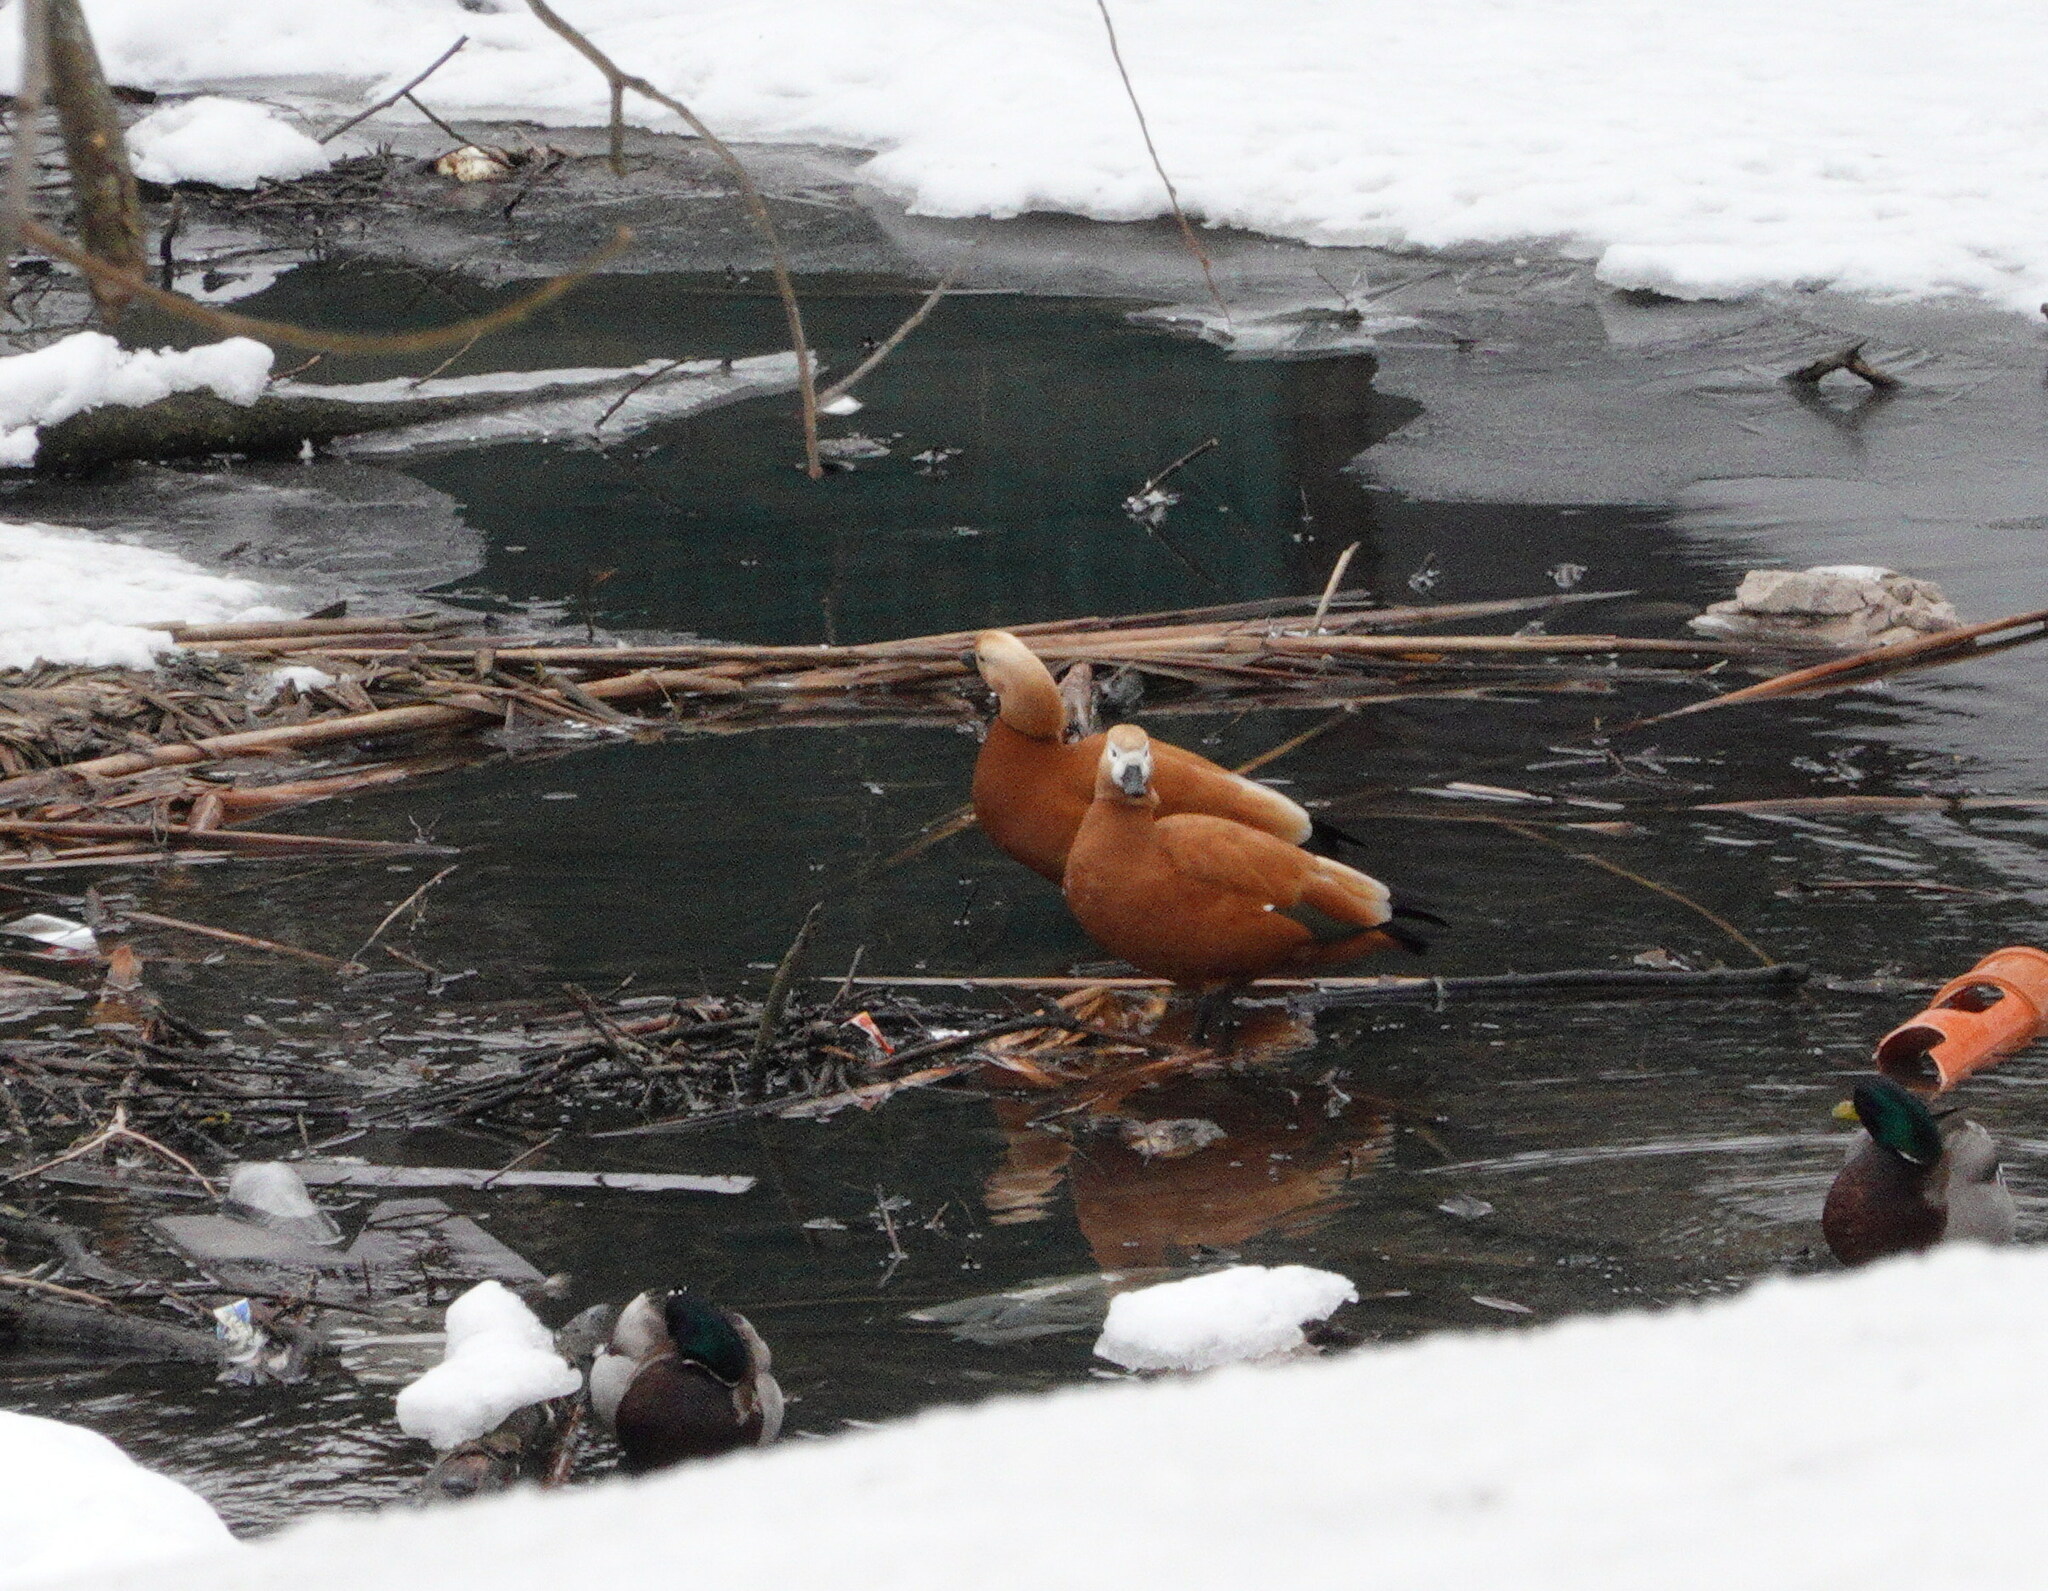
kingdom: Animalia
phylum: Chordata
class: Aves
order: Anseriformes
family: Anatidae
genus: Tadorna
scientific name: Tadorna ferruginea
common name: Ruddy shelduck
